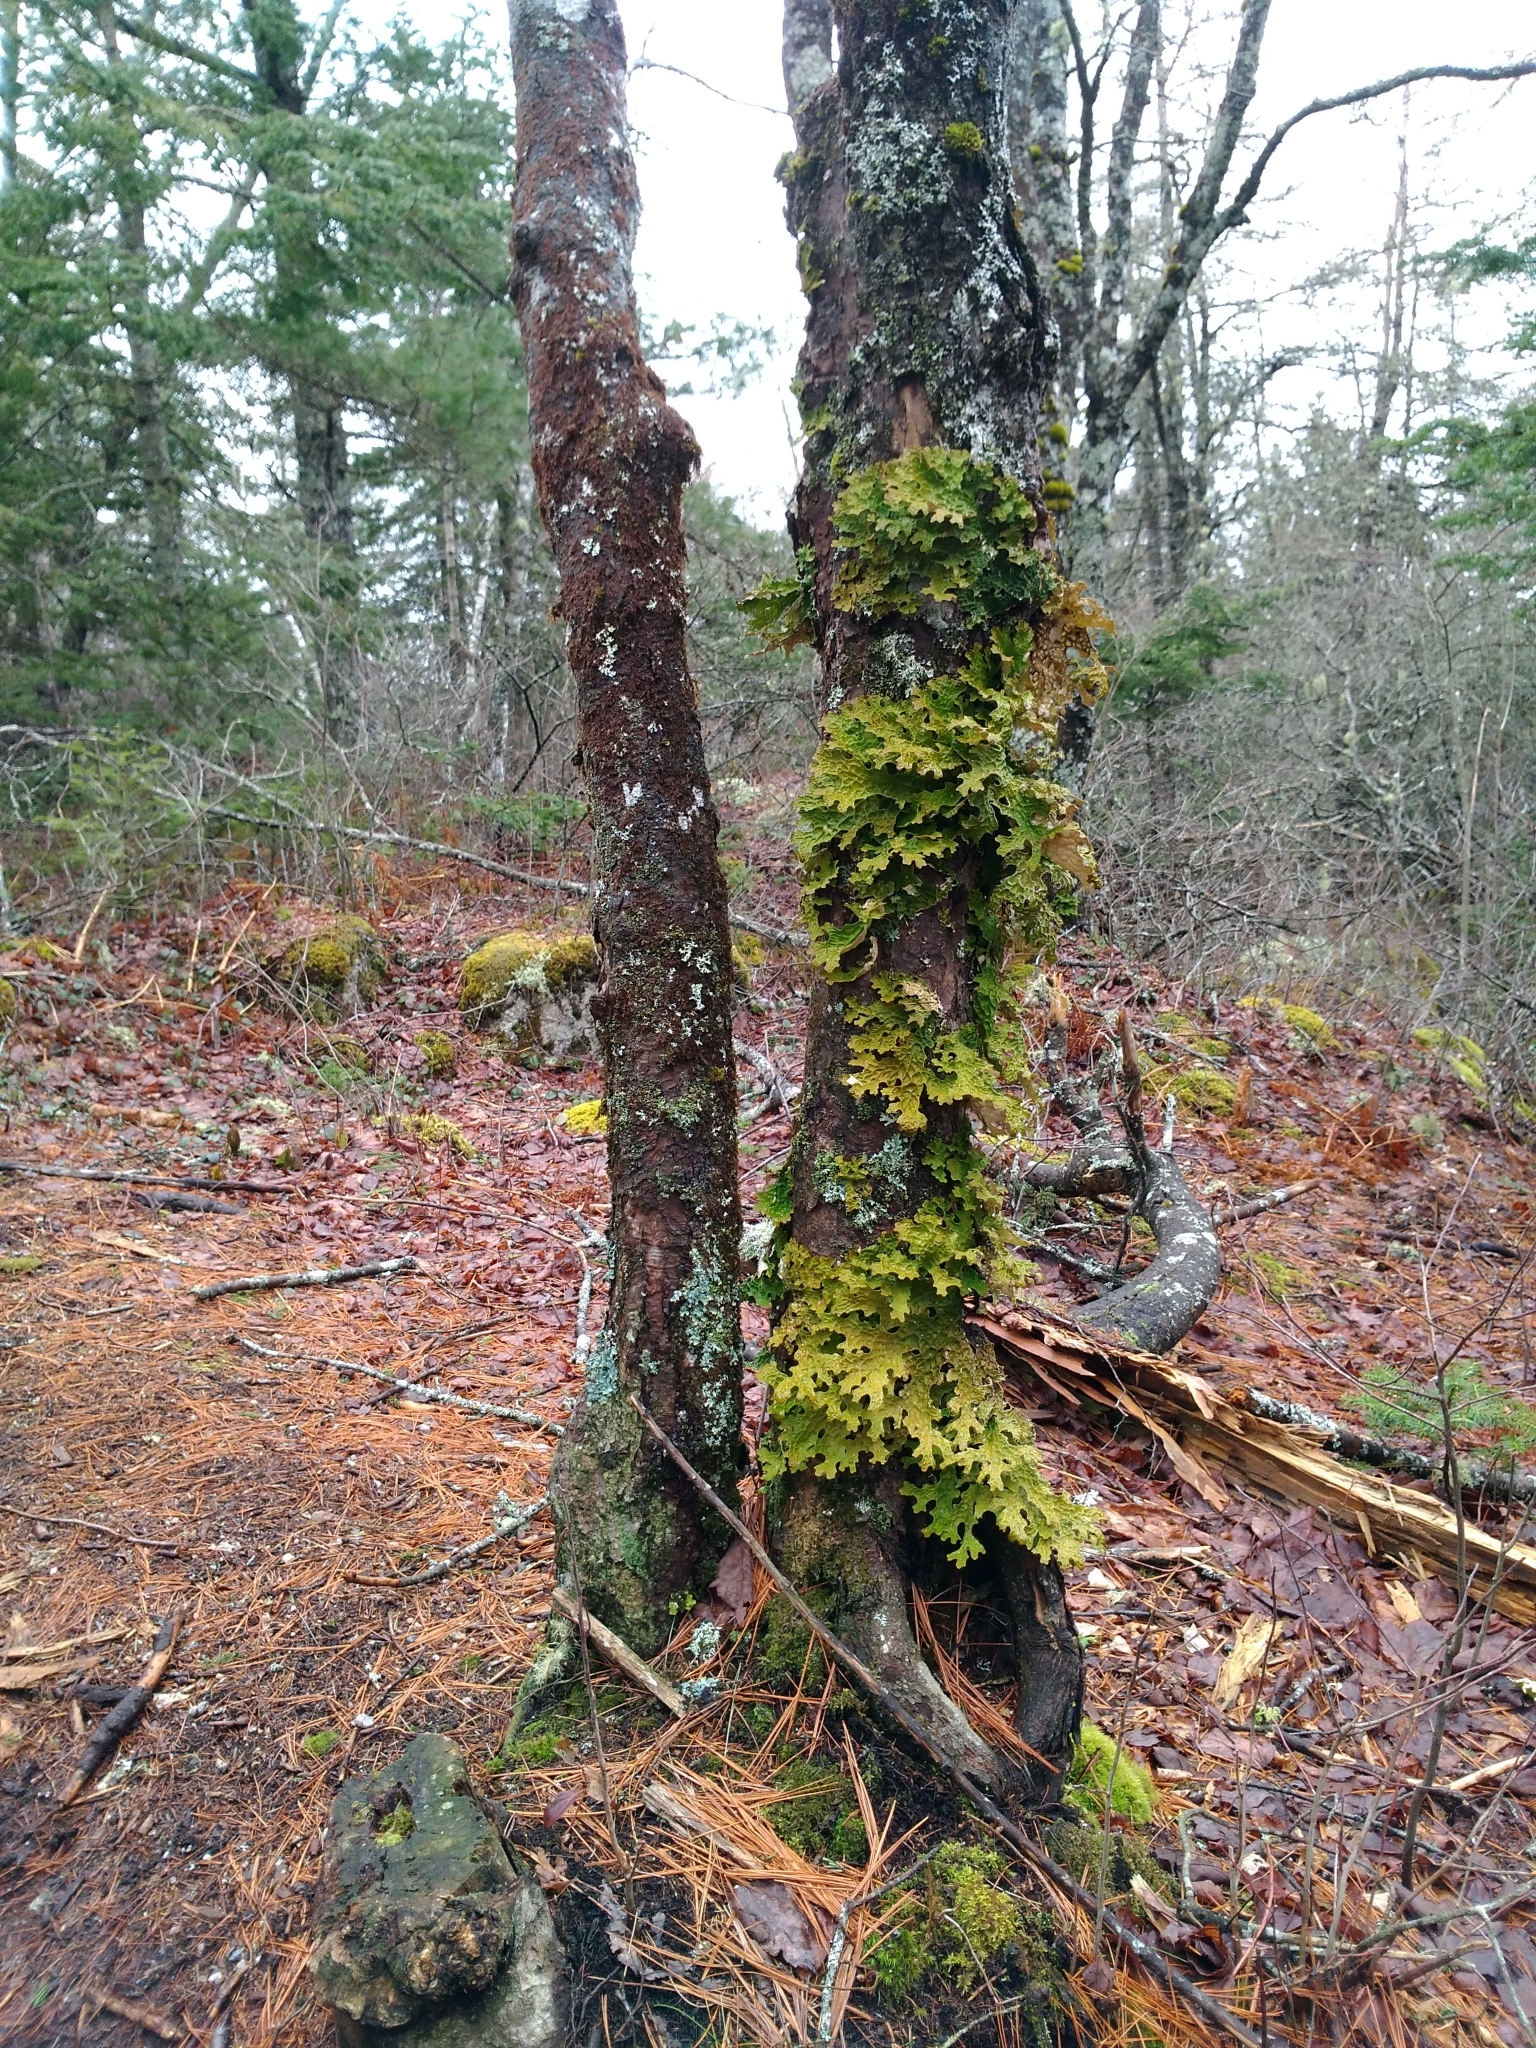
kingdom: Fungi
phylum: Ascomycota
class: Lecanoromycetes
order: Peltigerales
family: Lobariaceae
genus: Lobaria
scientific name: Lobaria pulmonaria
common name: Lungwort
